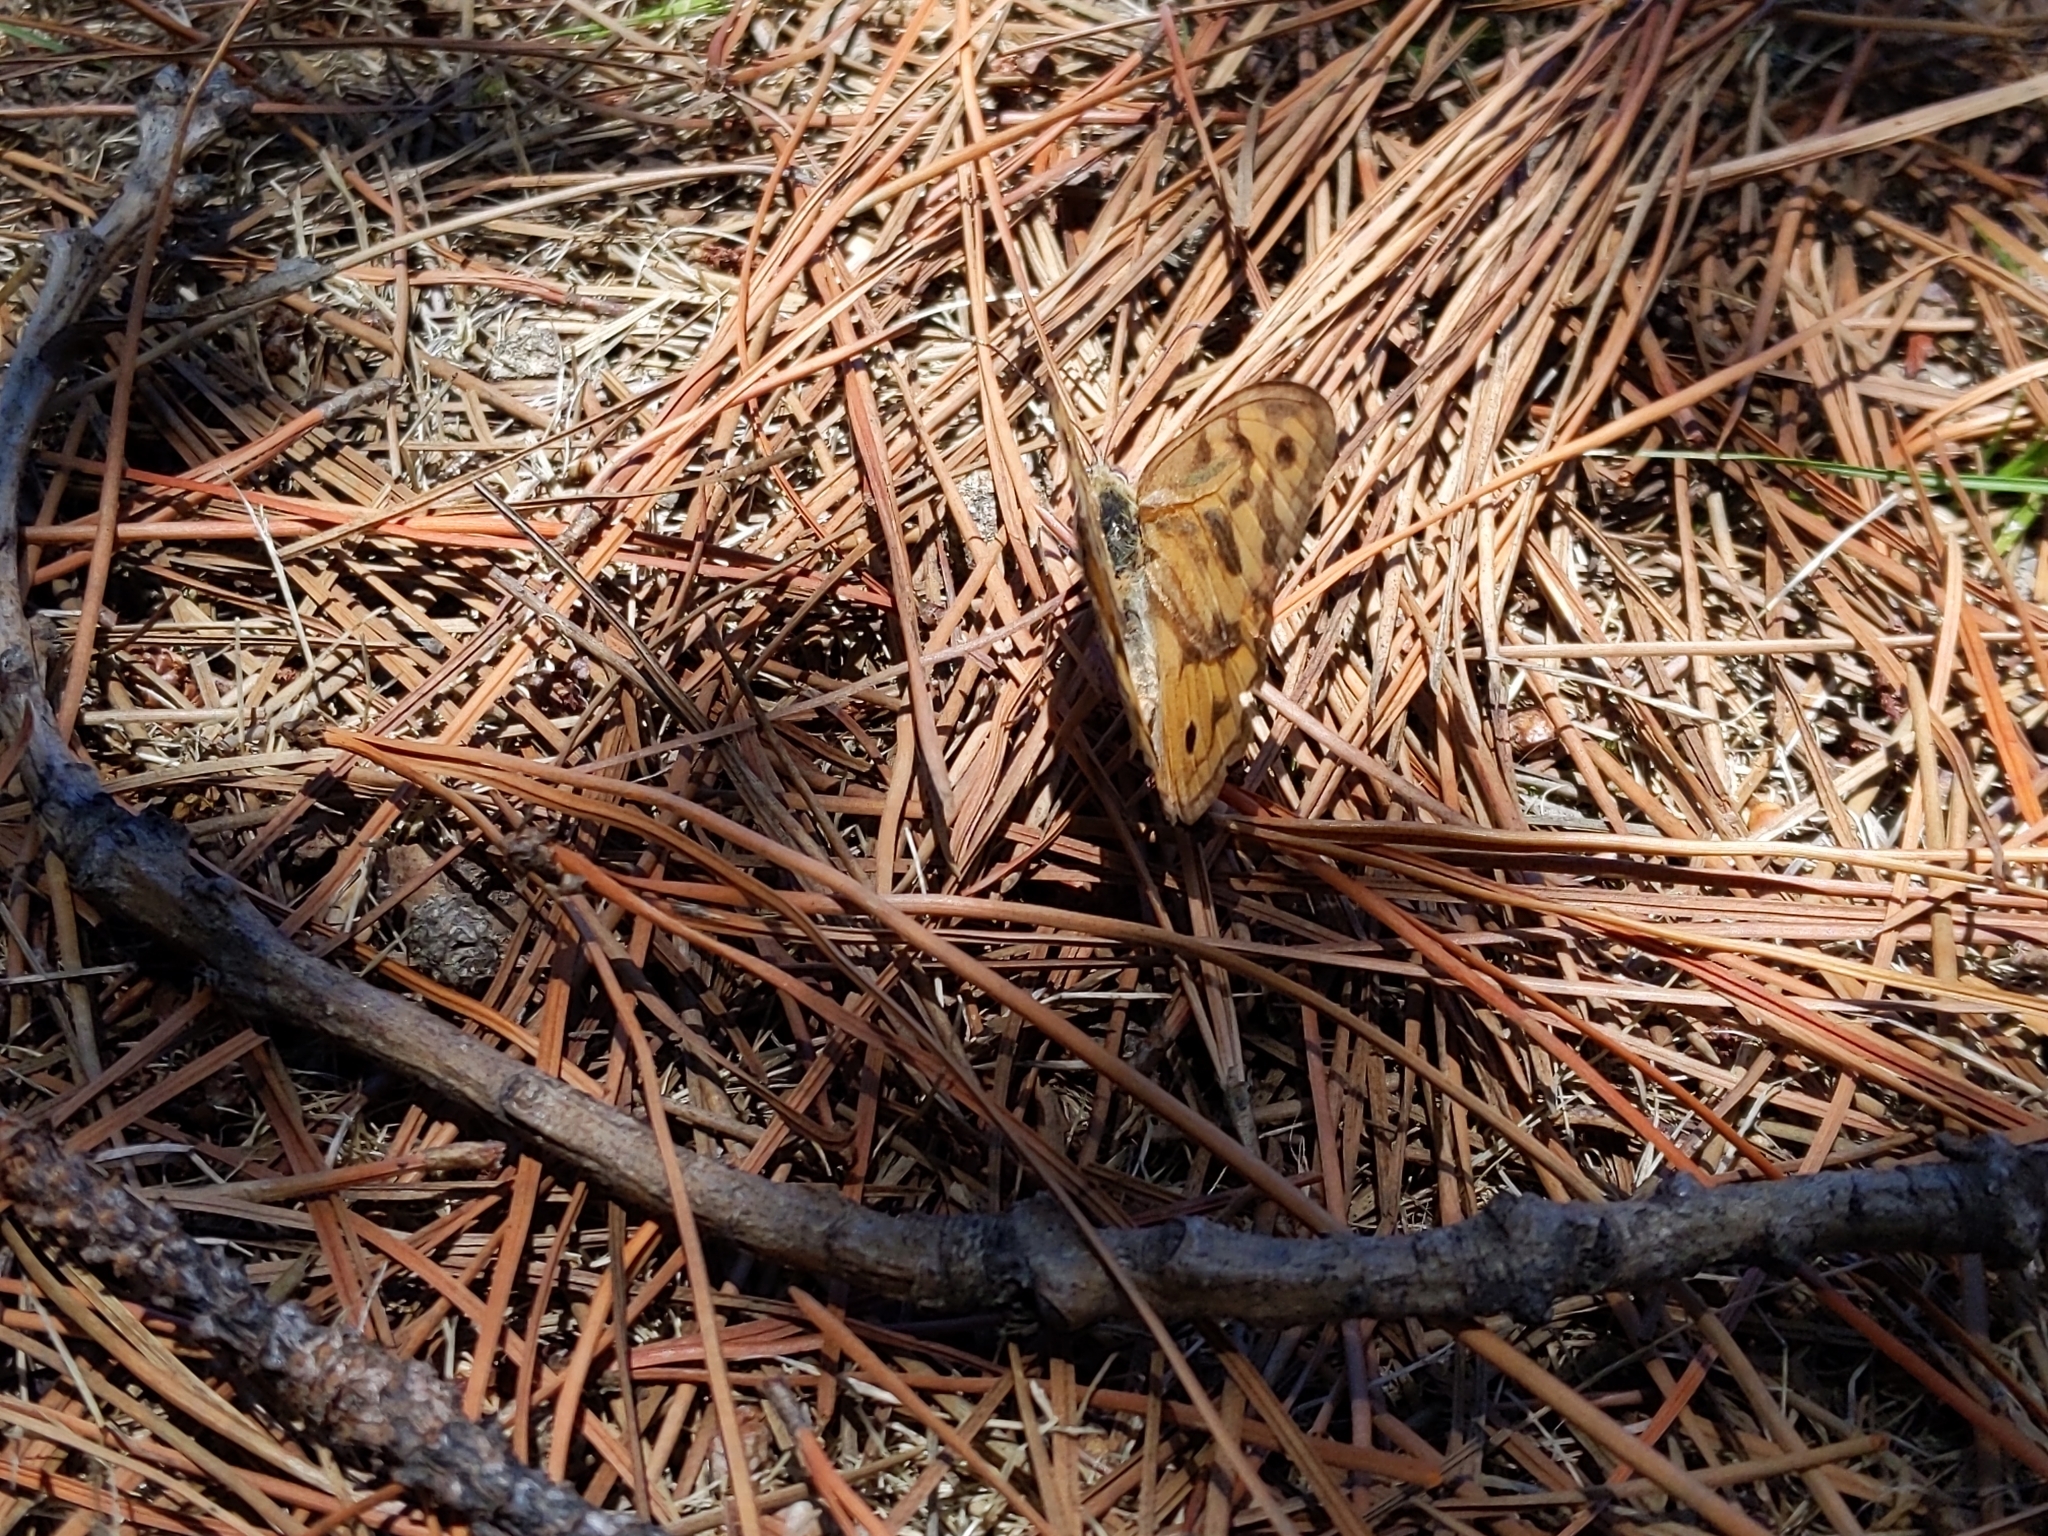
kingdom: Animalia
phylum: Arthropoda
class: Insecta
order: Lepidoptera
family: Nymphalidae
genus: Heteronympha
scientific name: Heteronympha merope
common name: Common brown
